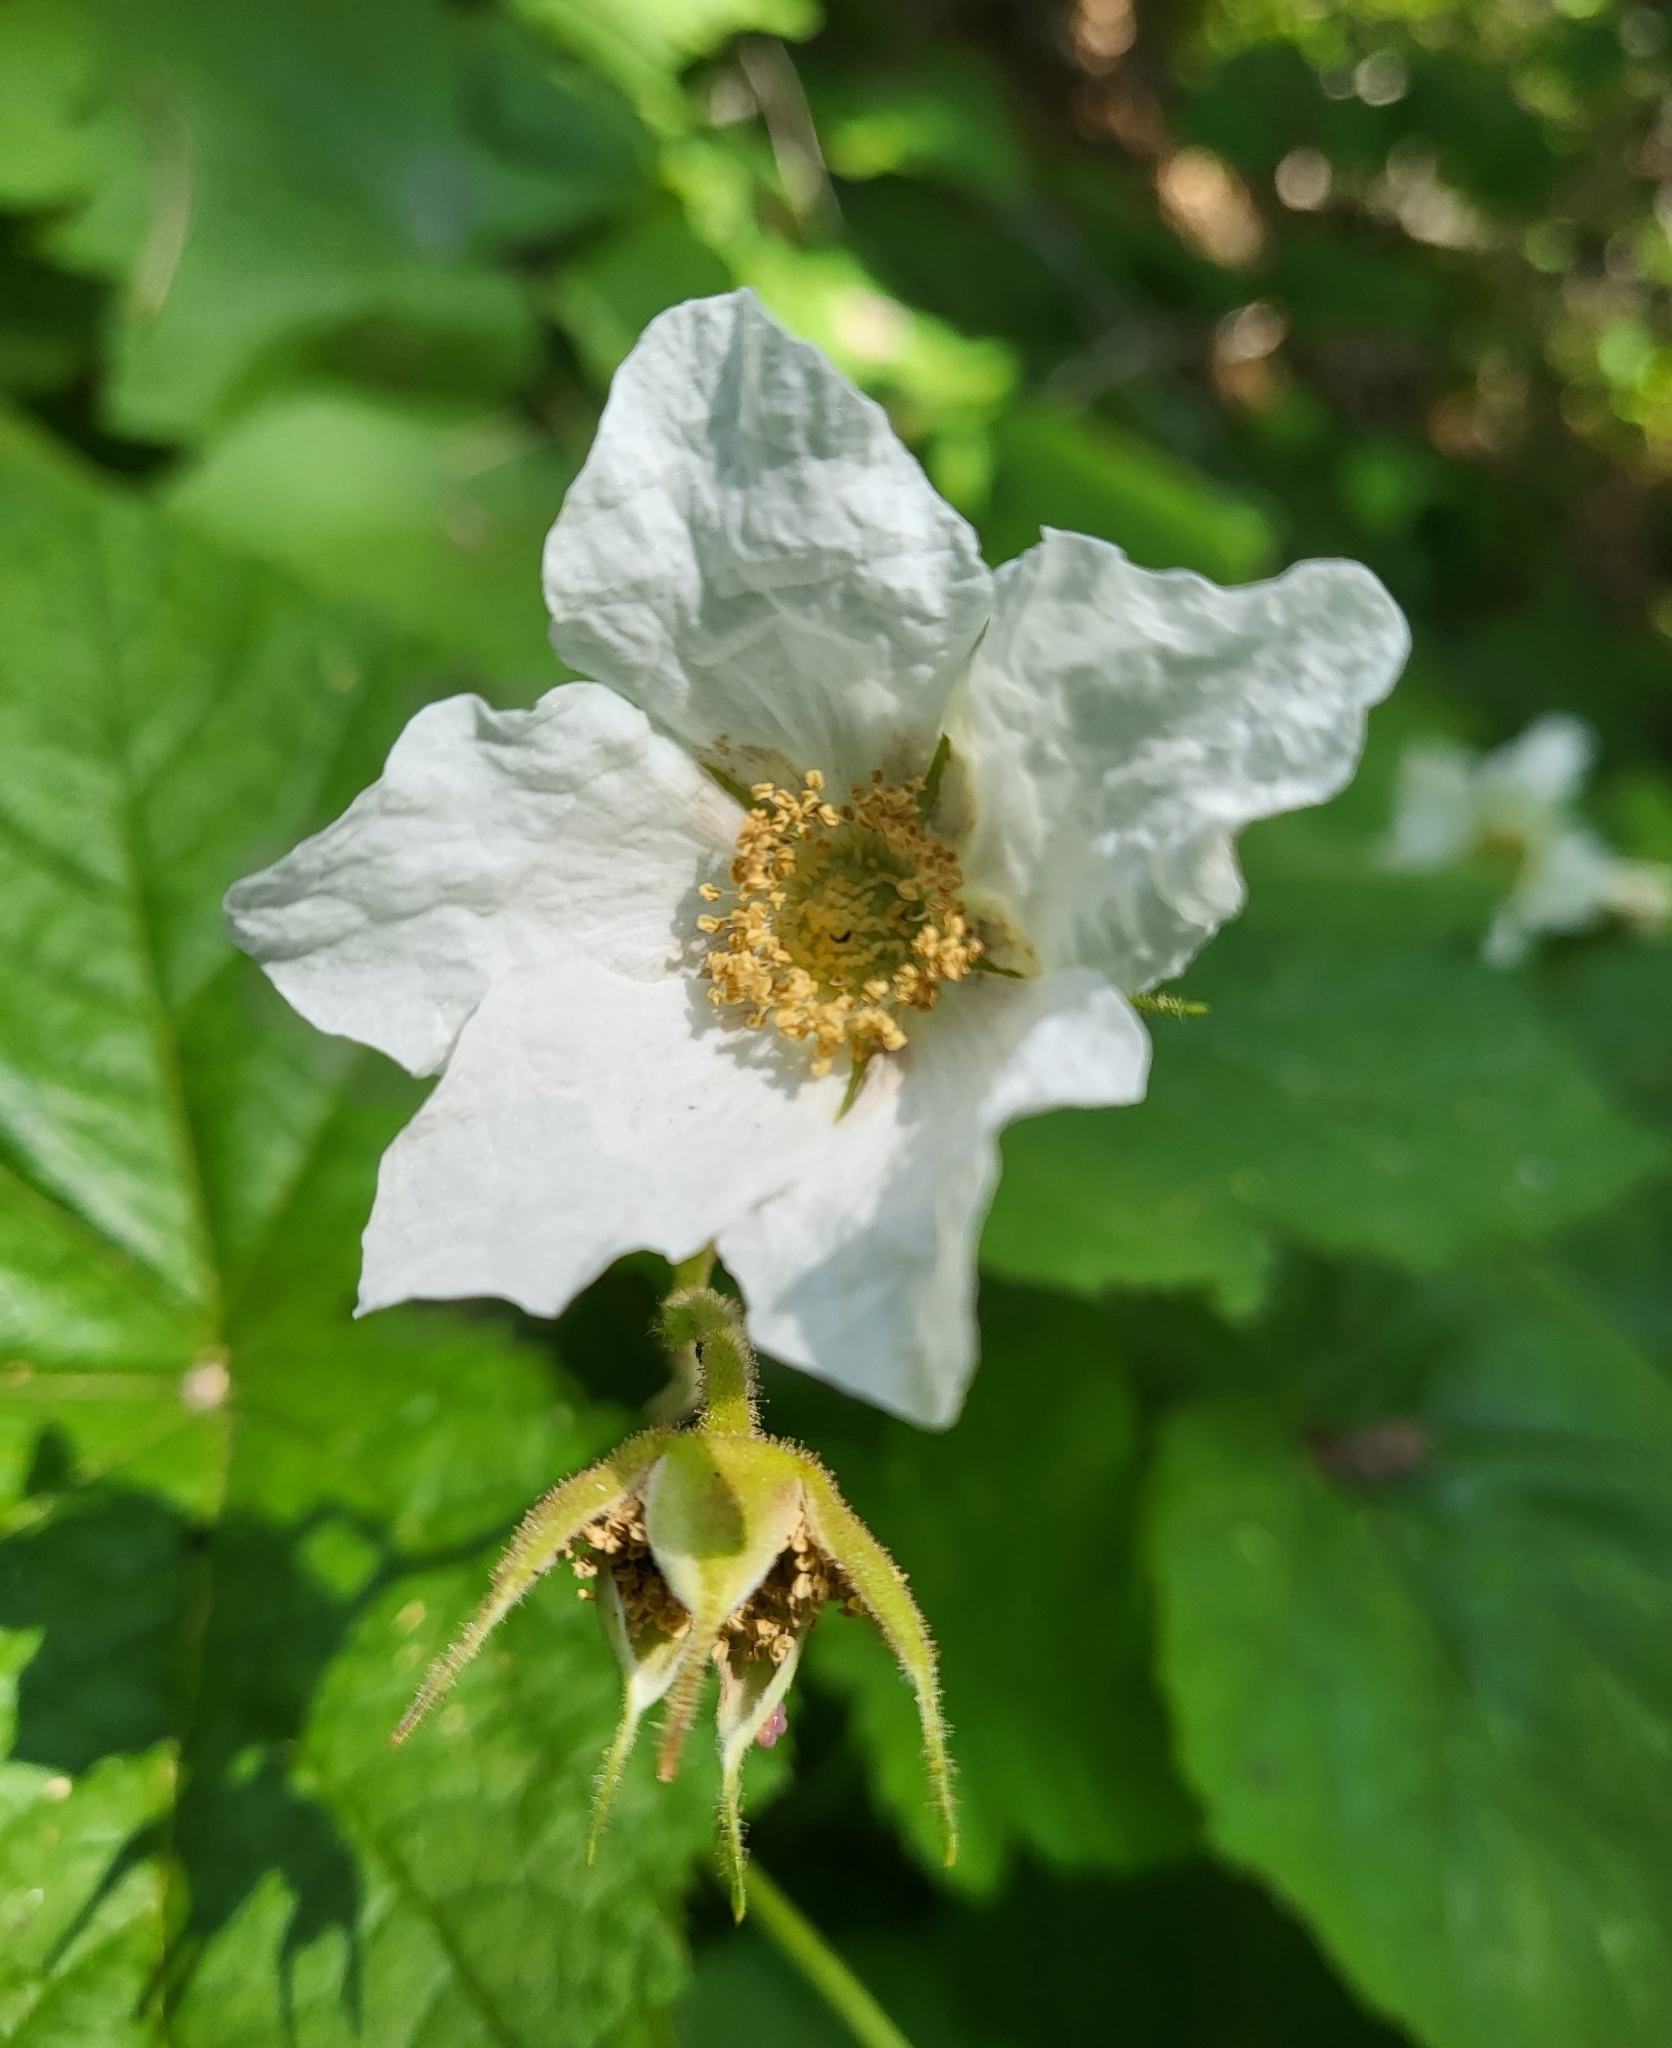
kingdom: Plantae
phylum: Tracheophyta
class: Magnoliopsida
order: Rosales
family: Rosaceae
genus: Rubus
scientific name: Rubus parviflorus
